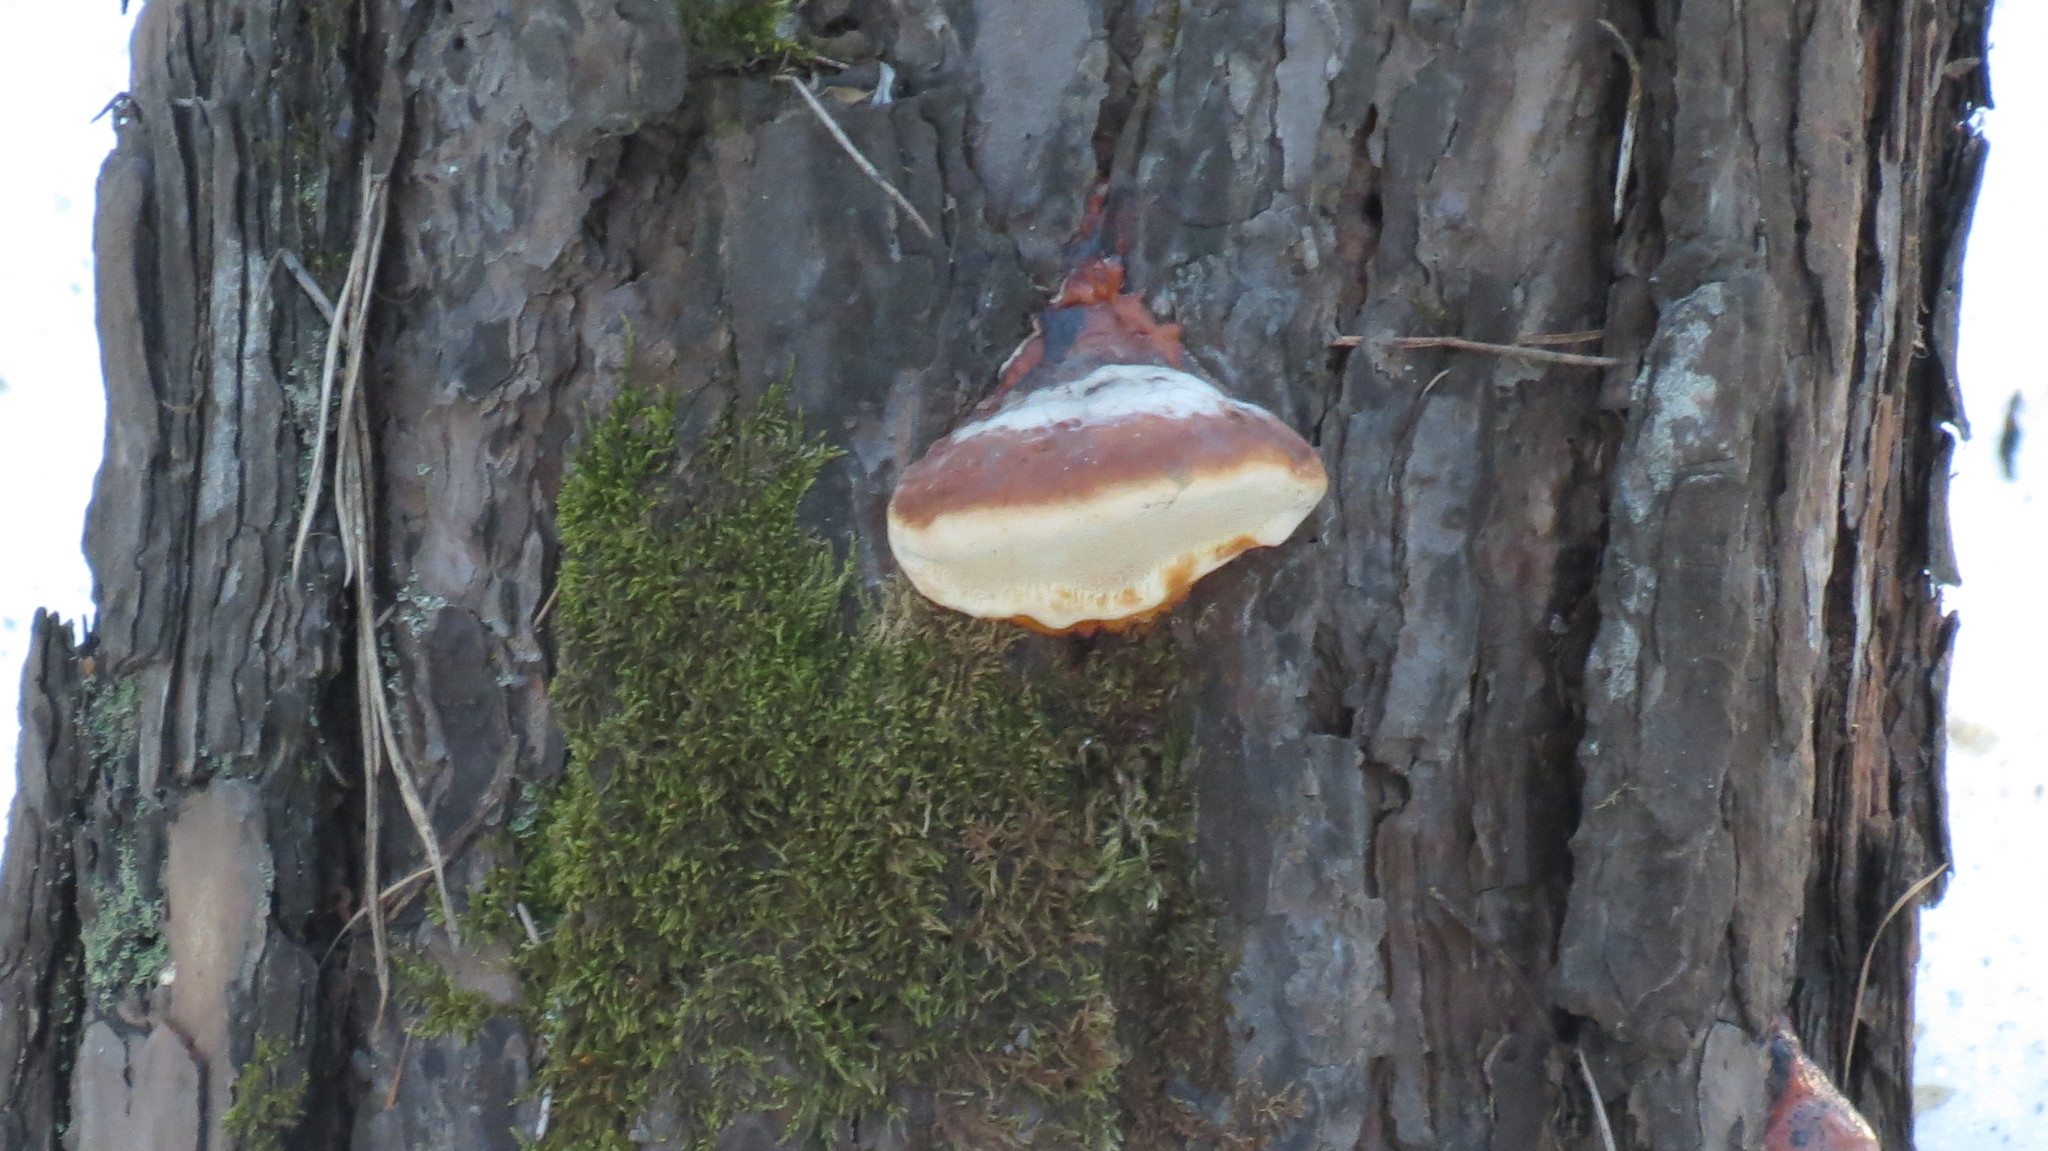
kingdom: Fungi
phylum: Basidiomycota
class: Agaricomycetes
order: Polyporales
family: Fomitopsidaceae
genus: Fomitopsis
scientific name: Fomitopsis pinicola
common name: Red-belted bracket
